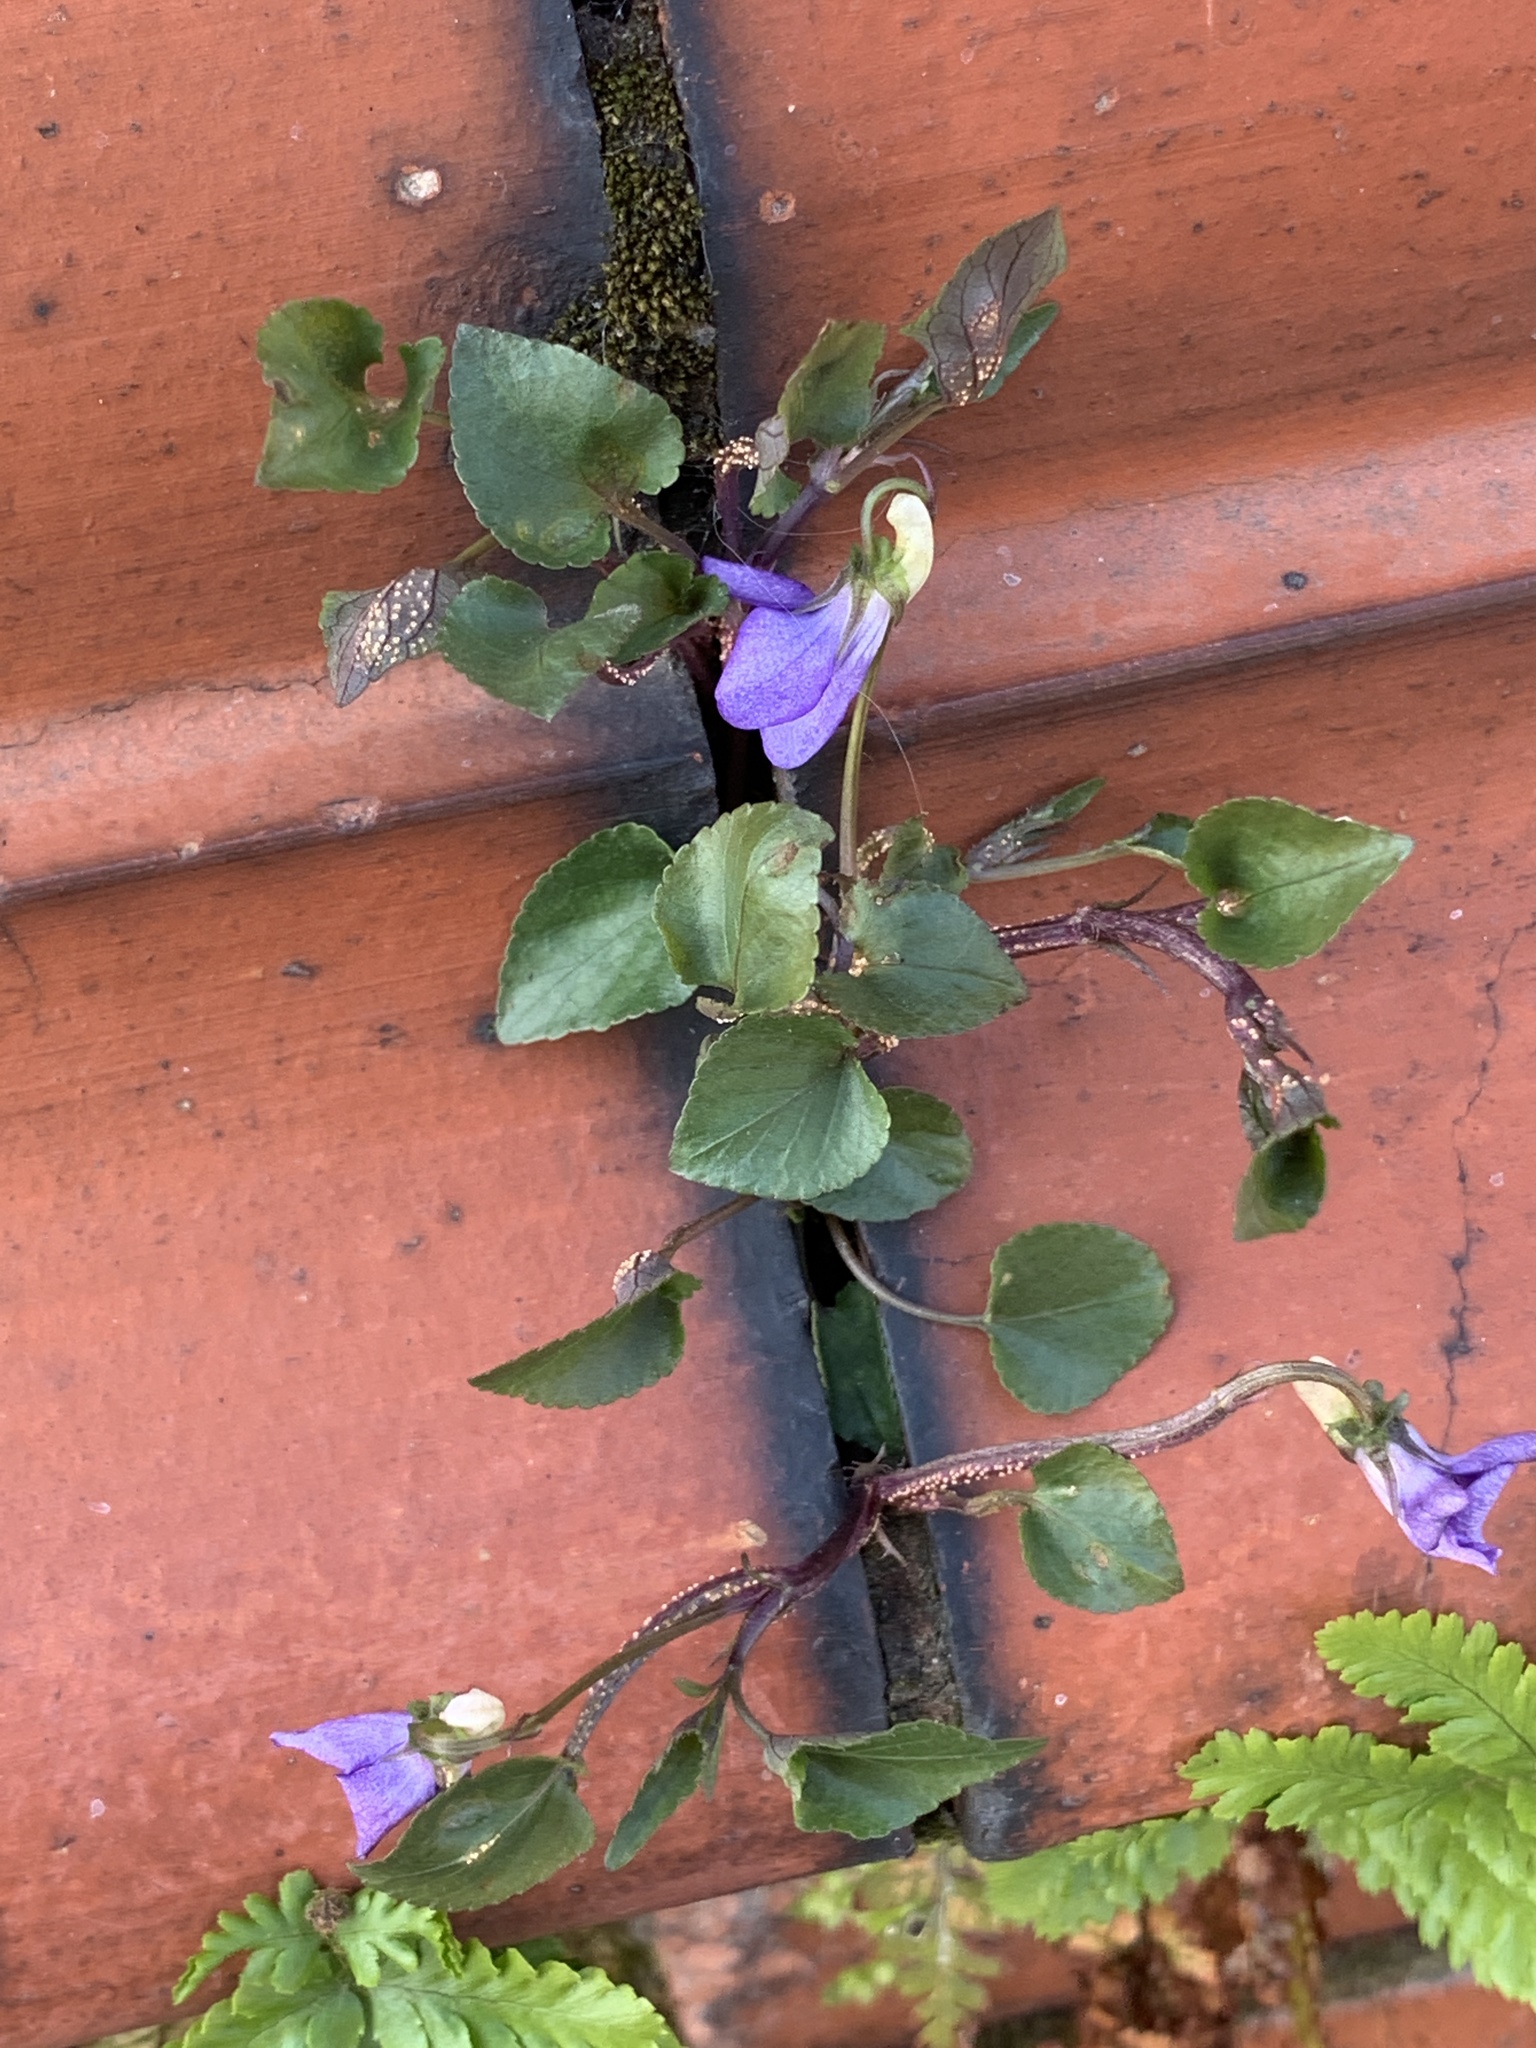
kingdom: Plantae
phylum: Tracheophyta
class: Magnoliopsida
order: Malpighiales
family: Violaceae
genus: Viola
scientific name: Viola riviniana
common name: Common dog-violet
